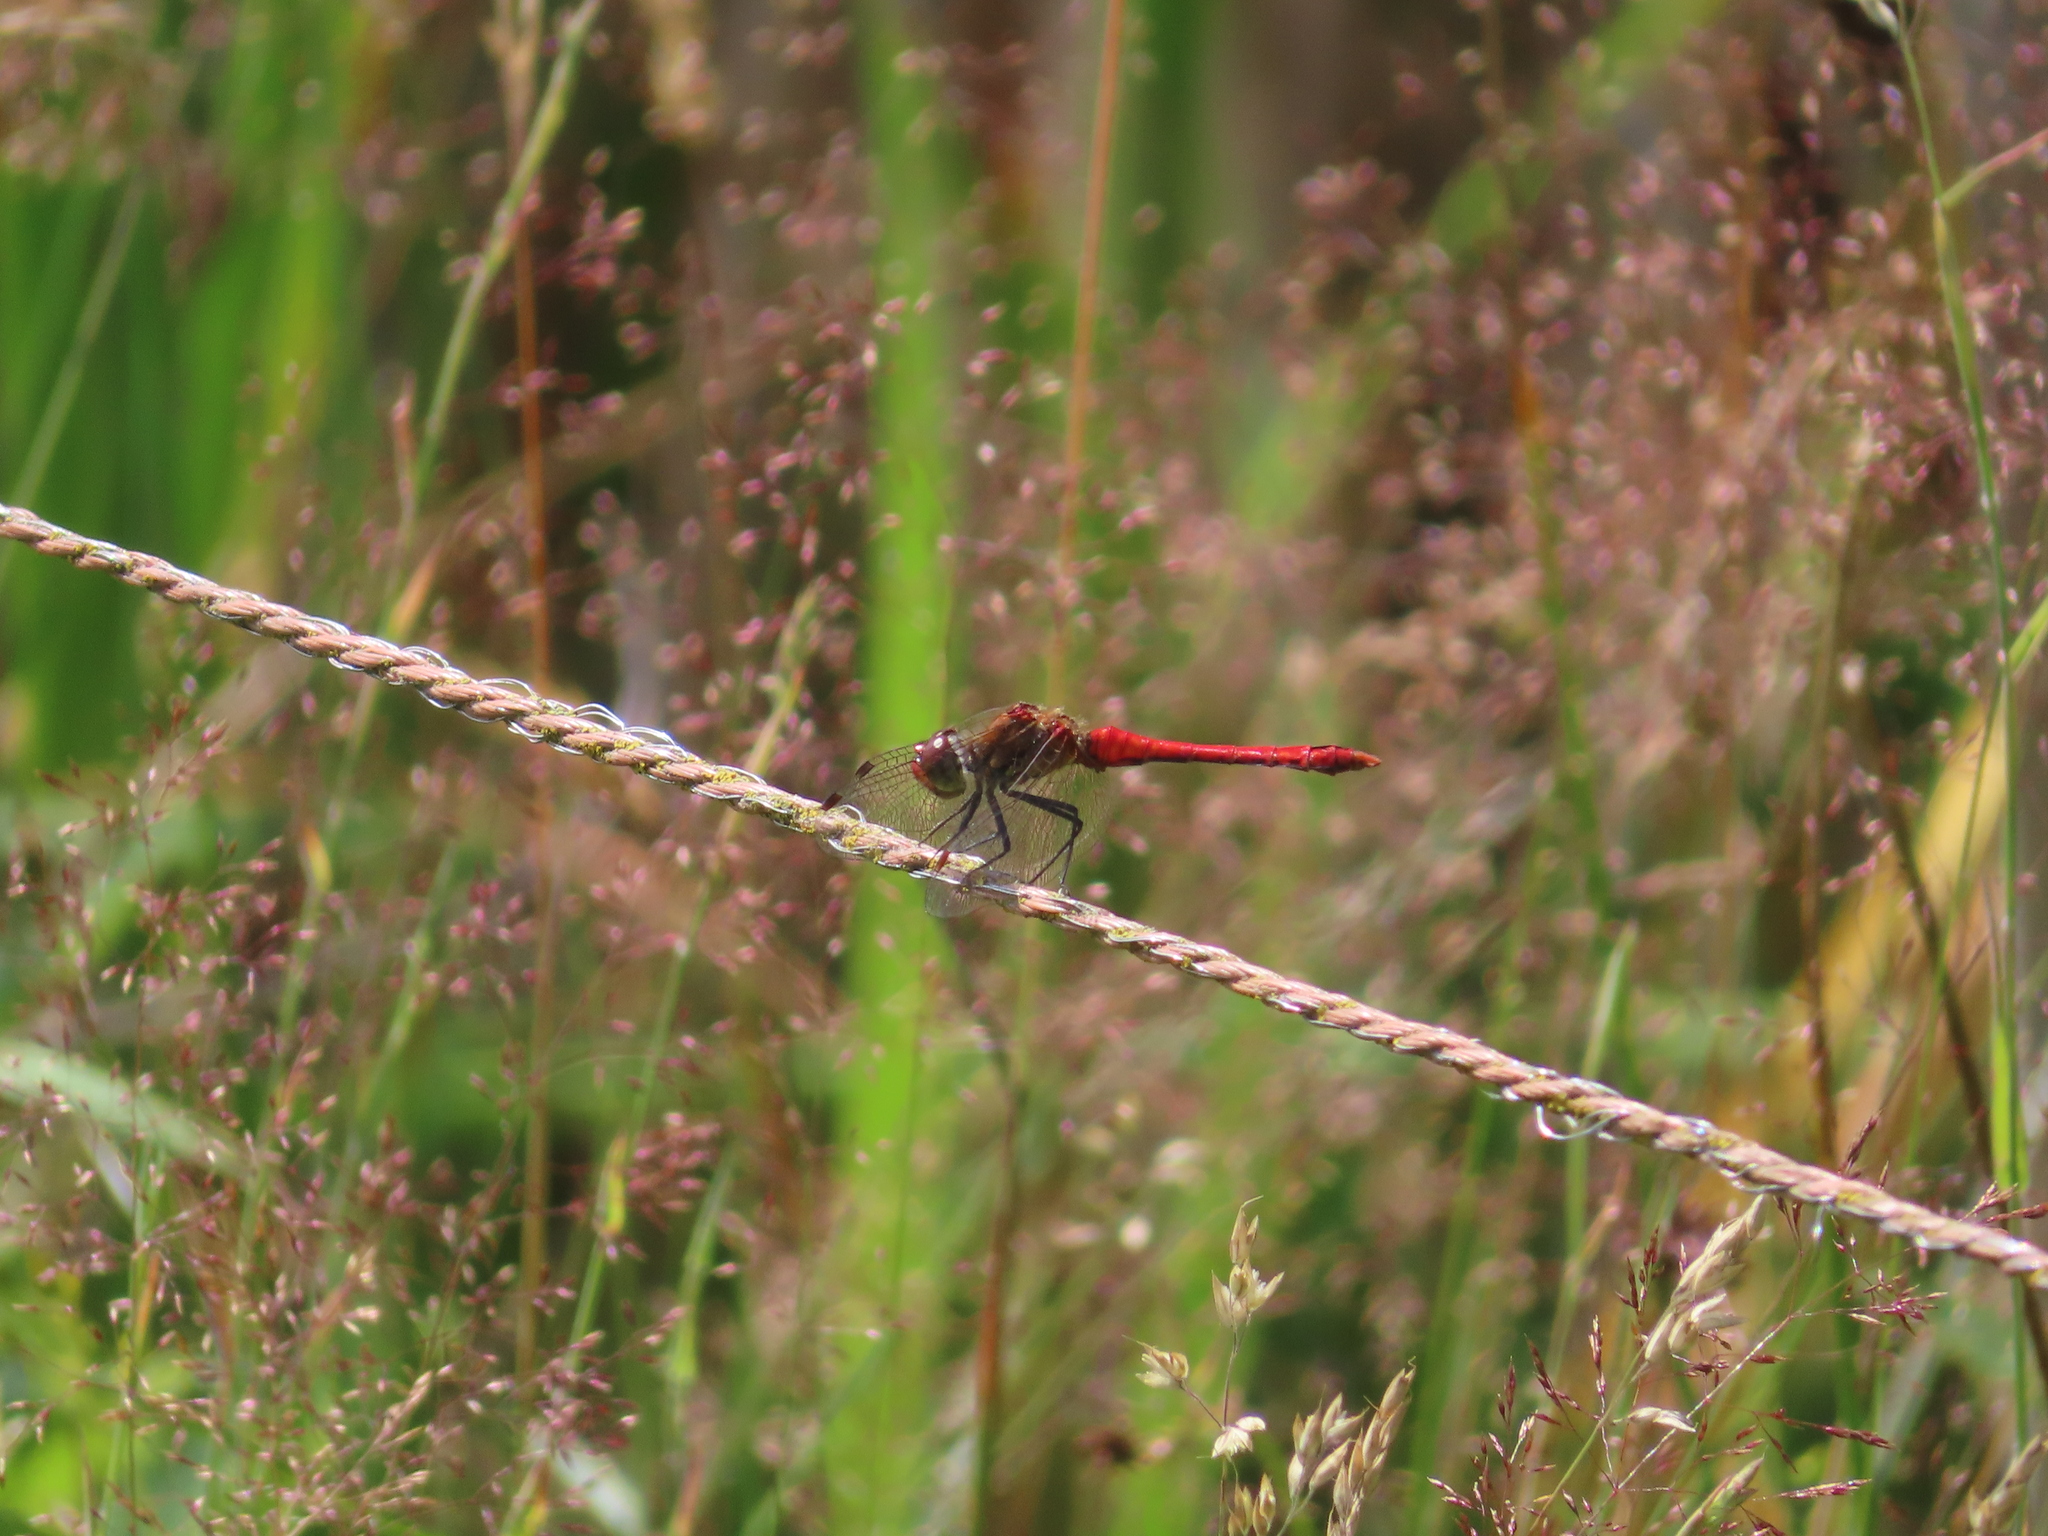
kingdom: Animalia
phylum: Arthropoda
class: Insecta
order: Odonata
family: Libellulidae
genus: Sympetrum
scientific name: Sympetrum sanguineum
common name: Ruddy darter
